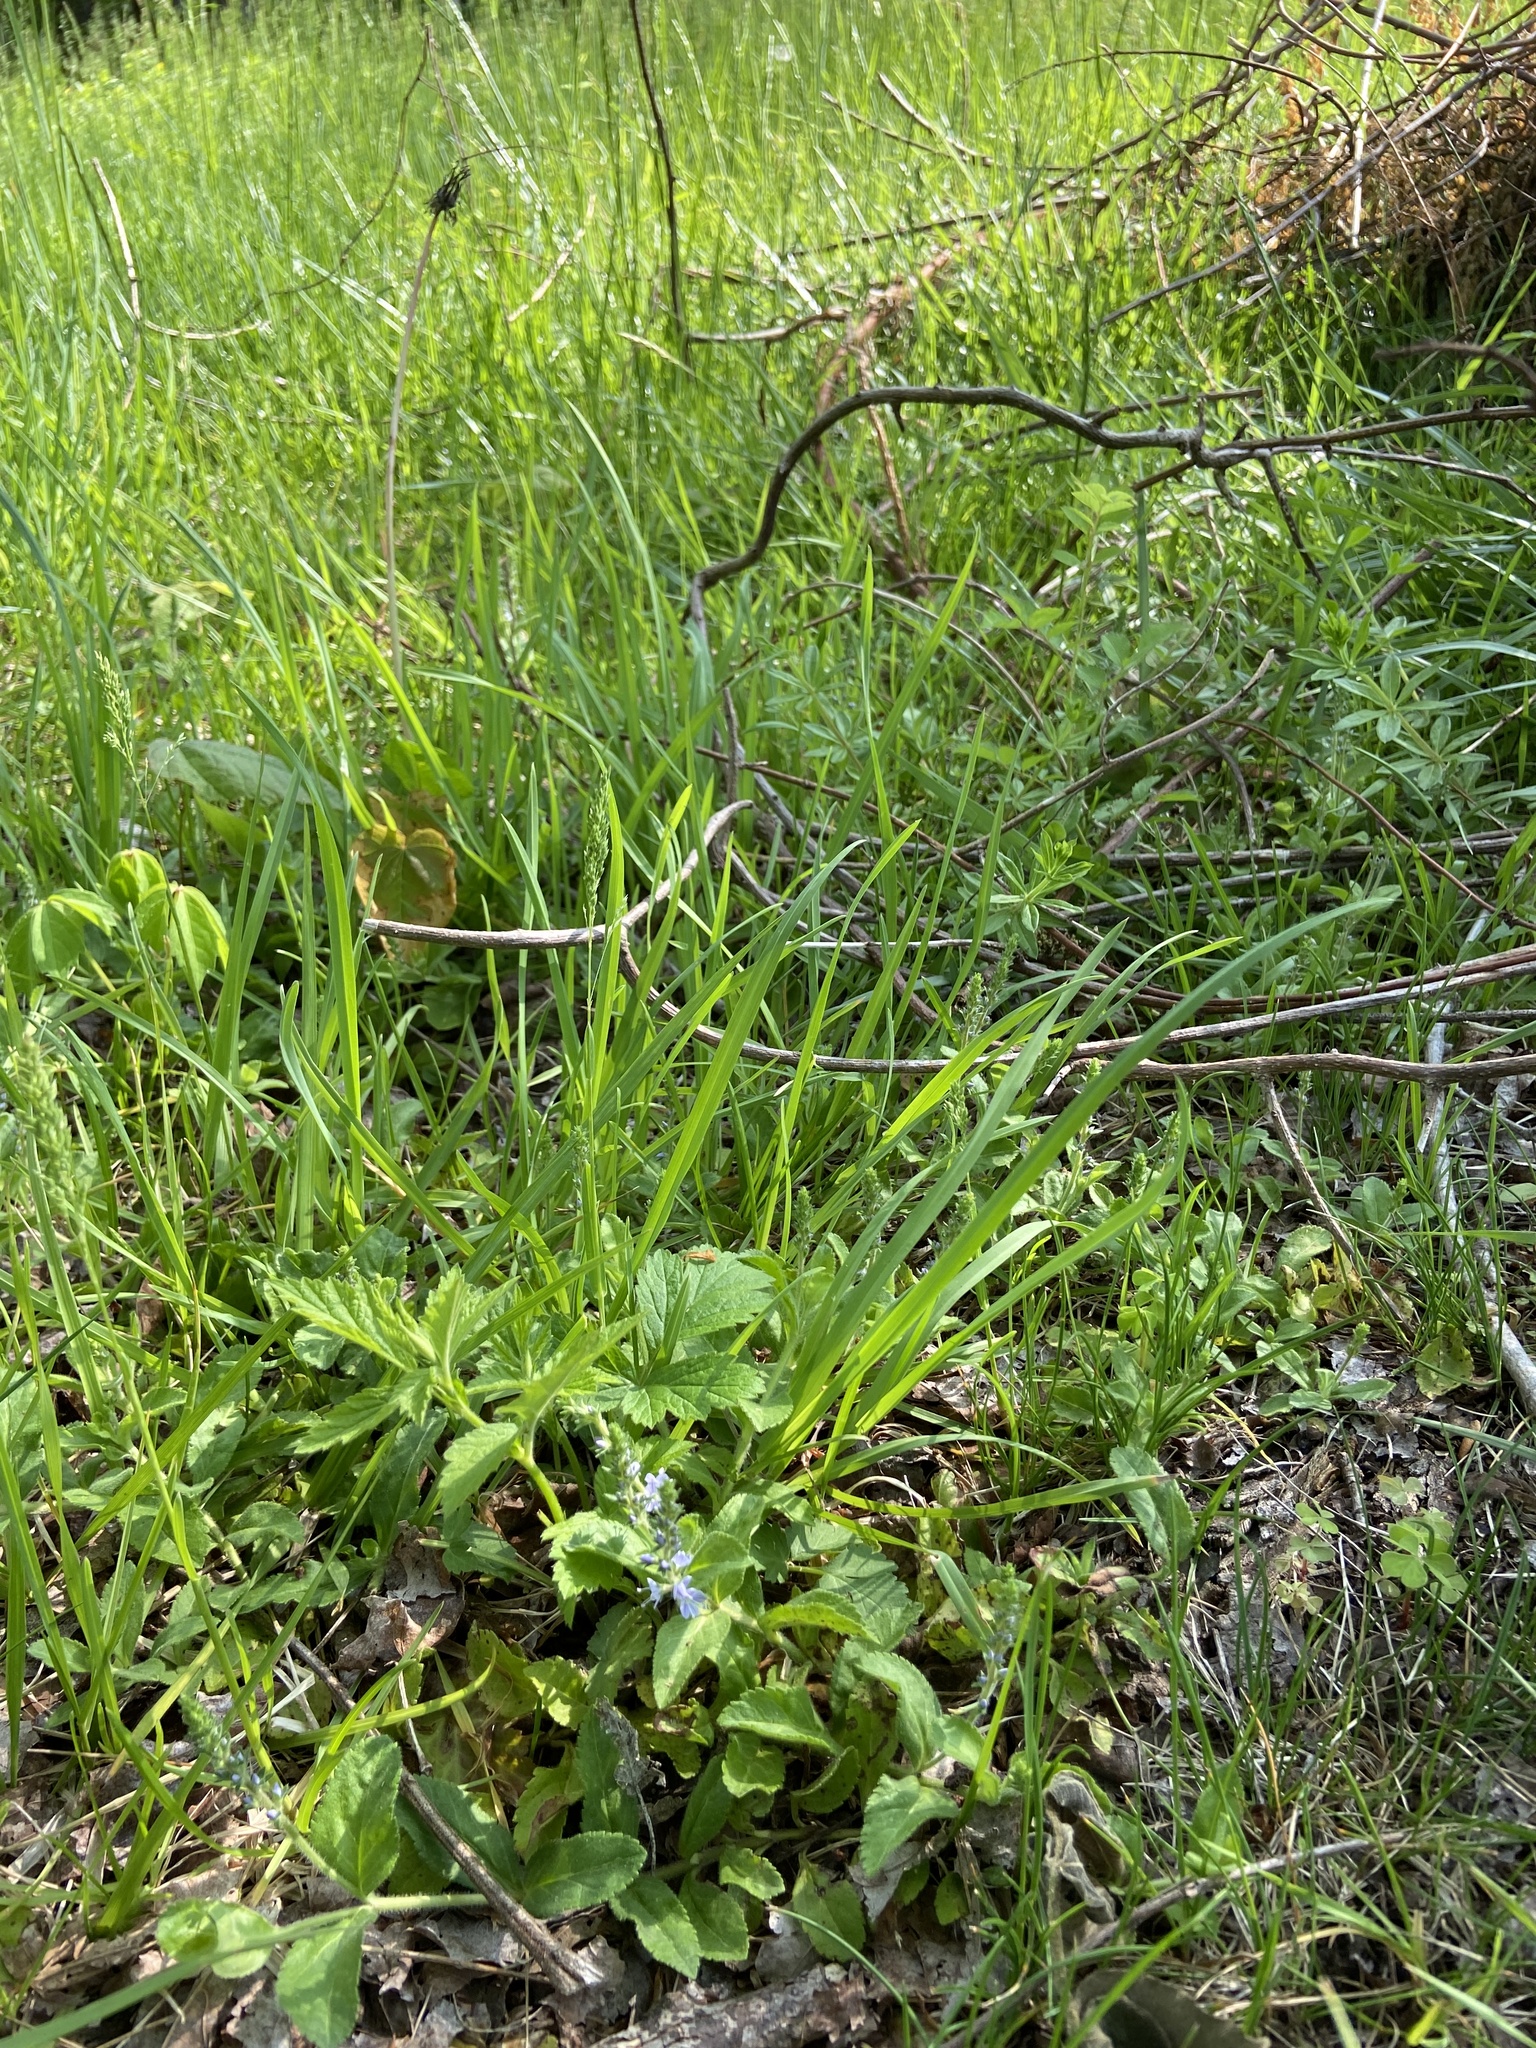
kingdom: Plantae
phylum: Tracheophyta
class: Magnoliopsida
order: Lamiales
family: Plantaginaceae
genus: Veronica
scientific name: Veronica officinalis
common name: Common speedwell
